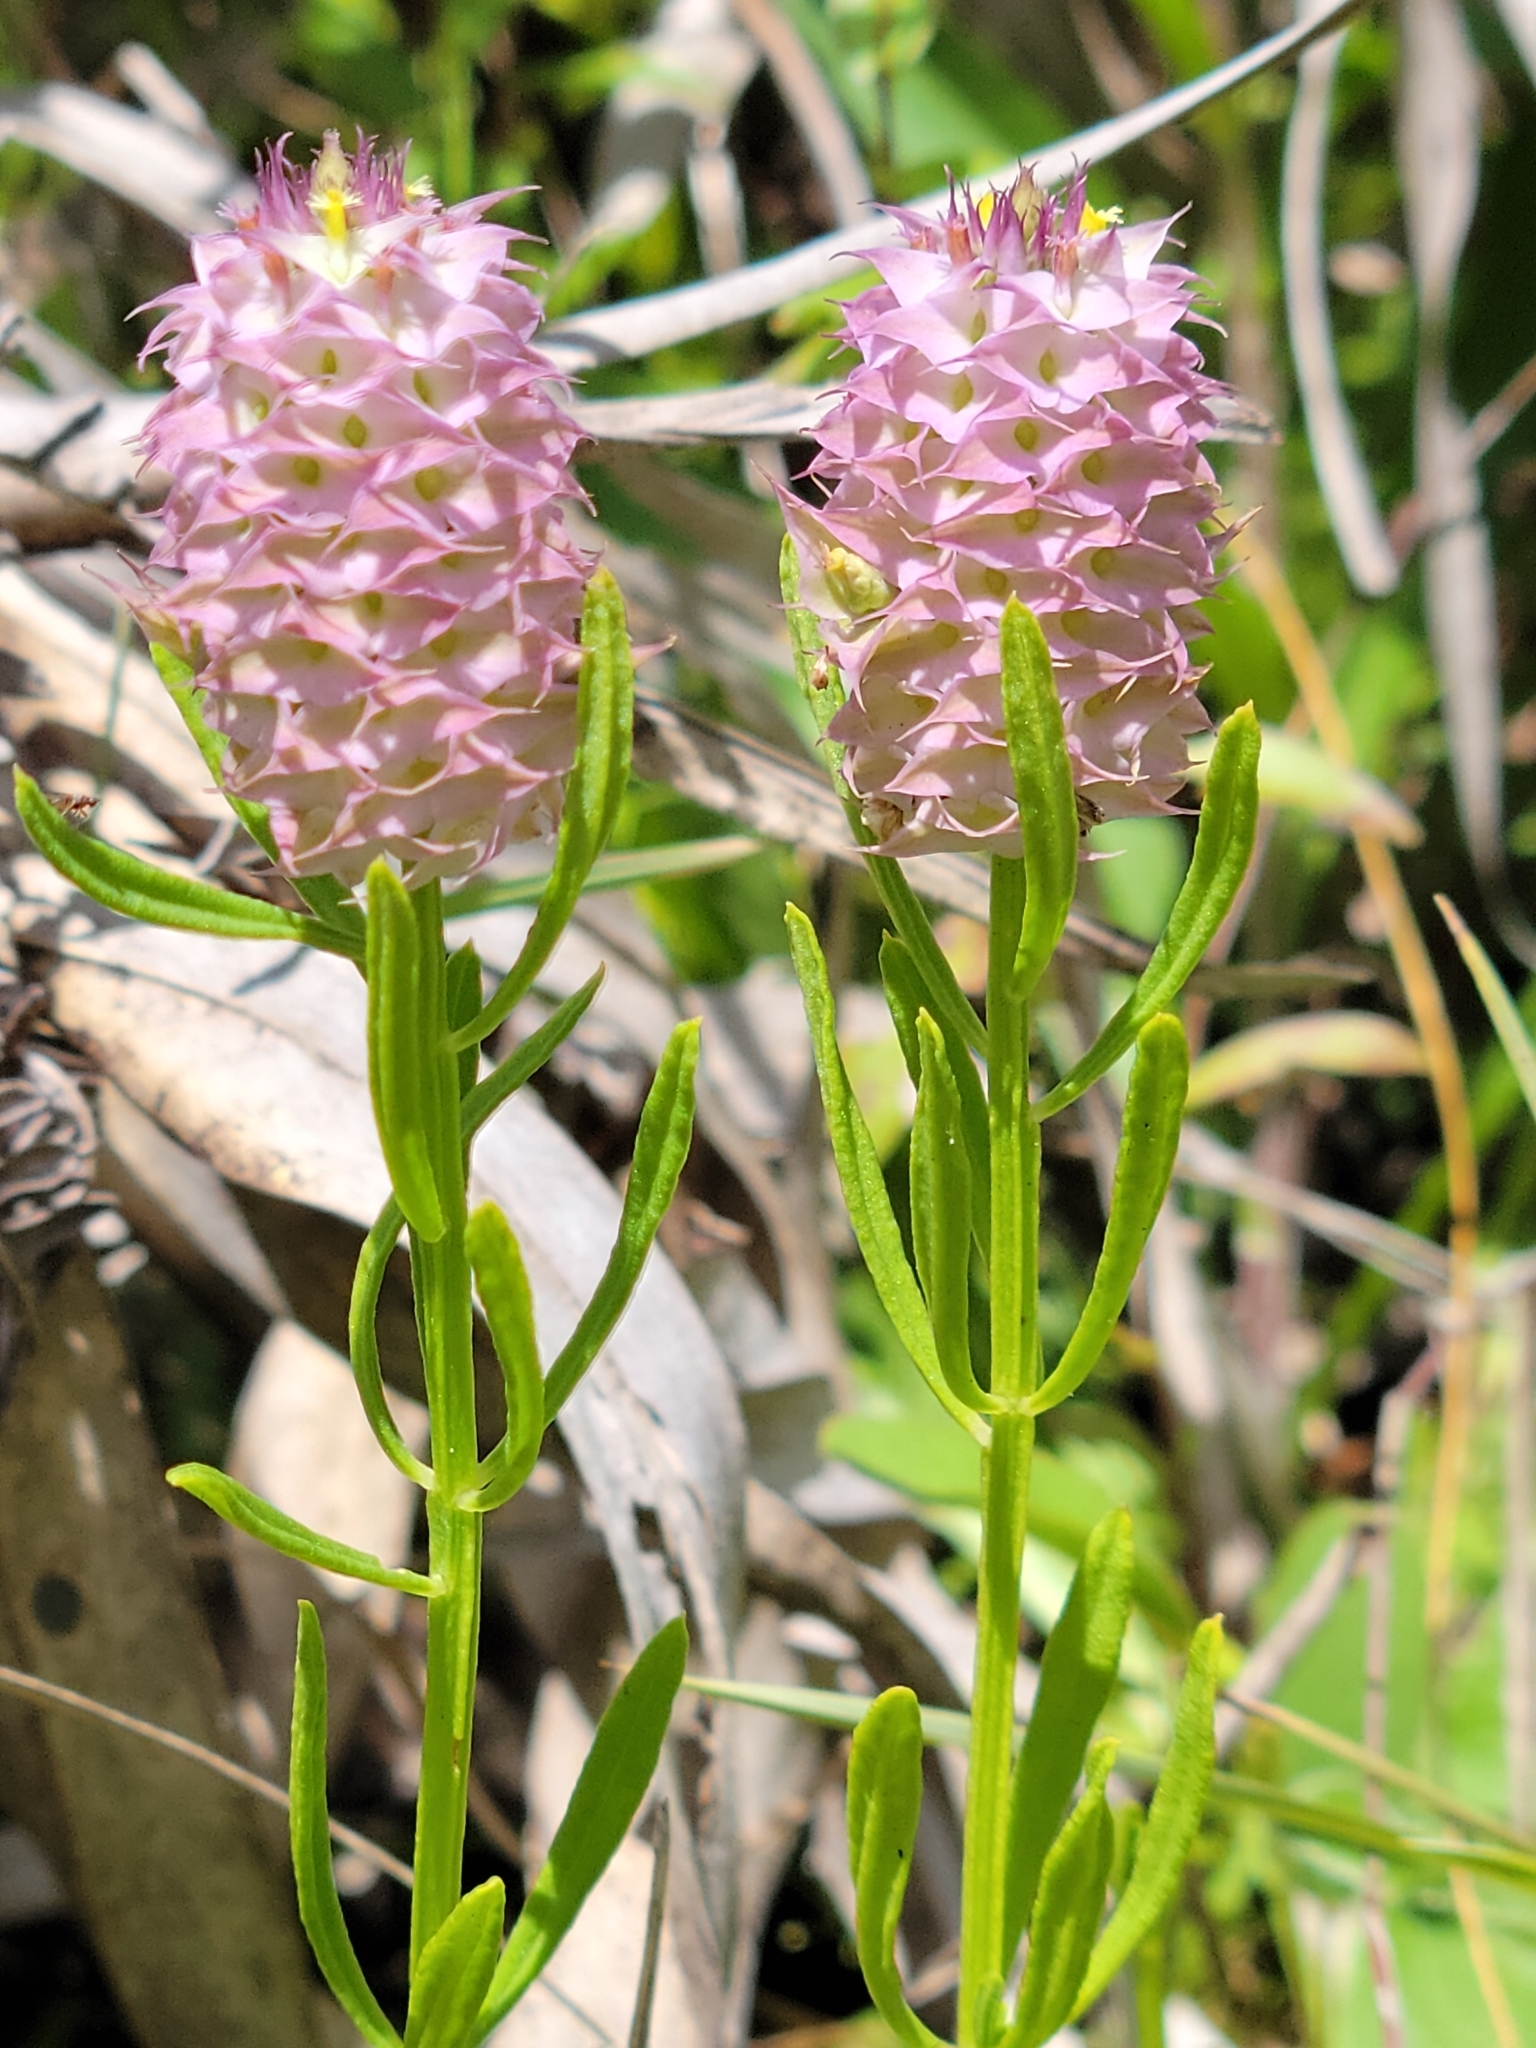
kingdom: Plantae
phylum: Tracheophyta
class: Magnoliopsida
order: Fabales
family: Polygalaceae
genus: Polygala
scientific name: Polygala cruciata
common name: Drumheads
